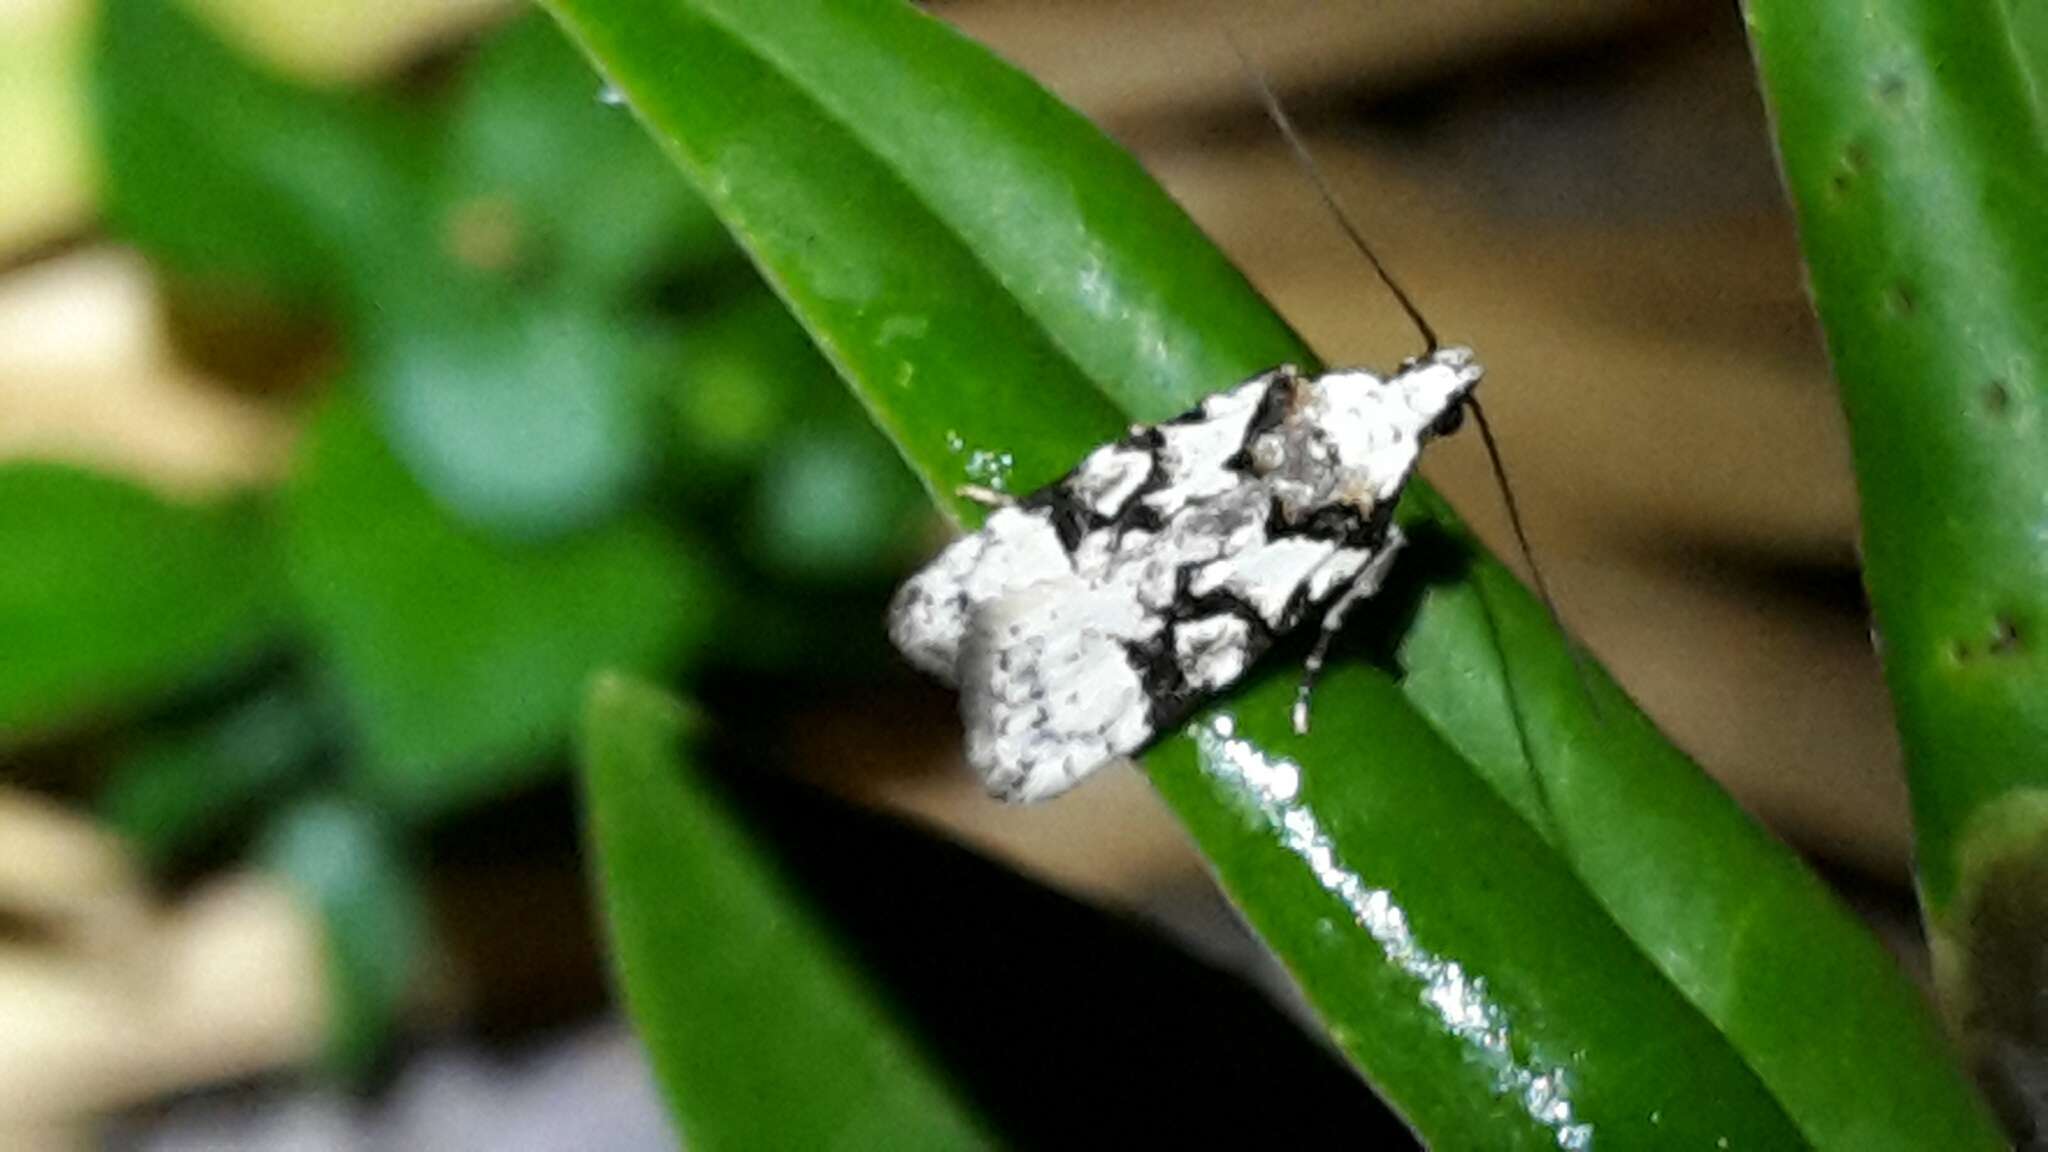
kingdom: Animalia
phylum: Arthropoda
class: Insecta
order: Lepidoptera
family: Oecophoridae
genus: Izatha
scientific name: Izatha epiphanes
